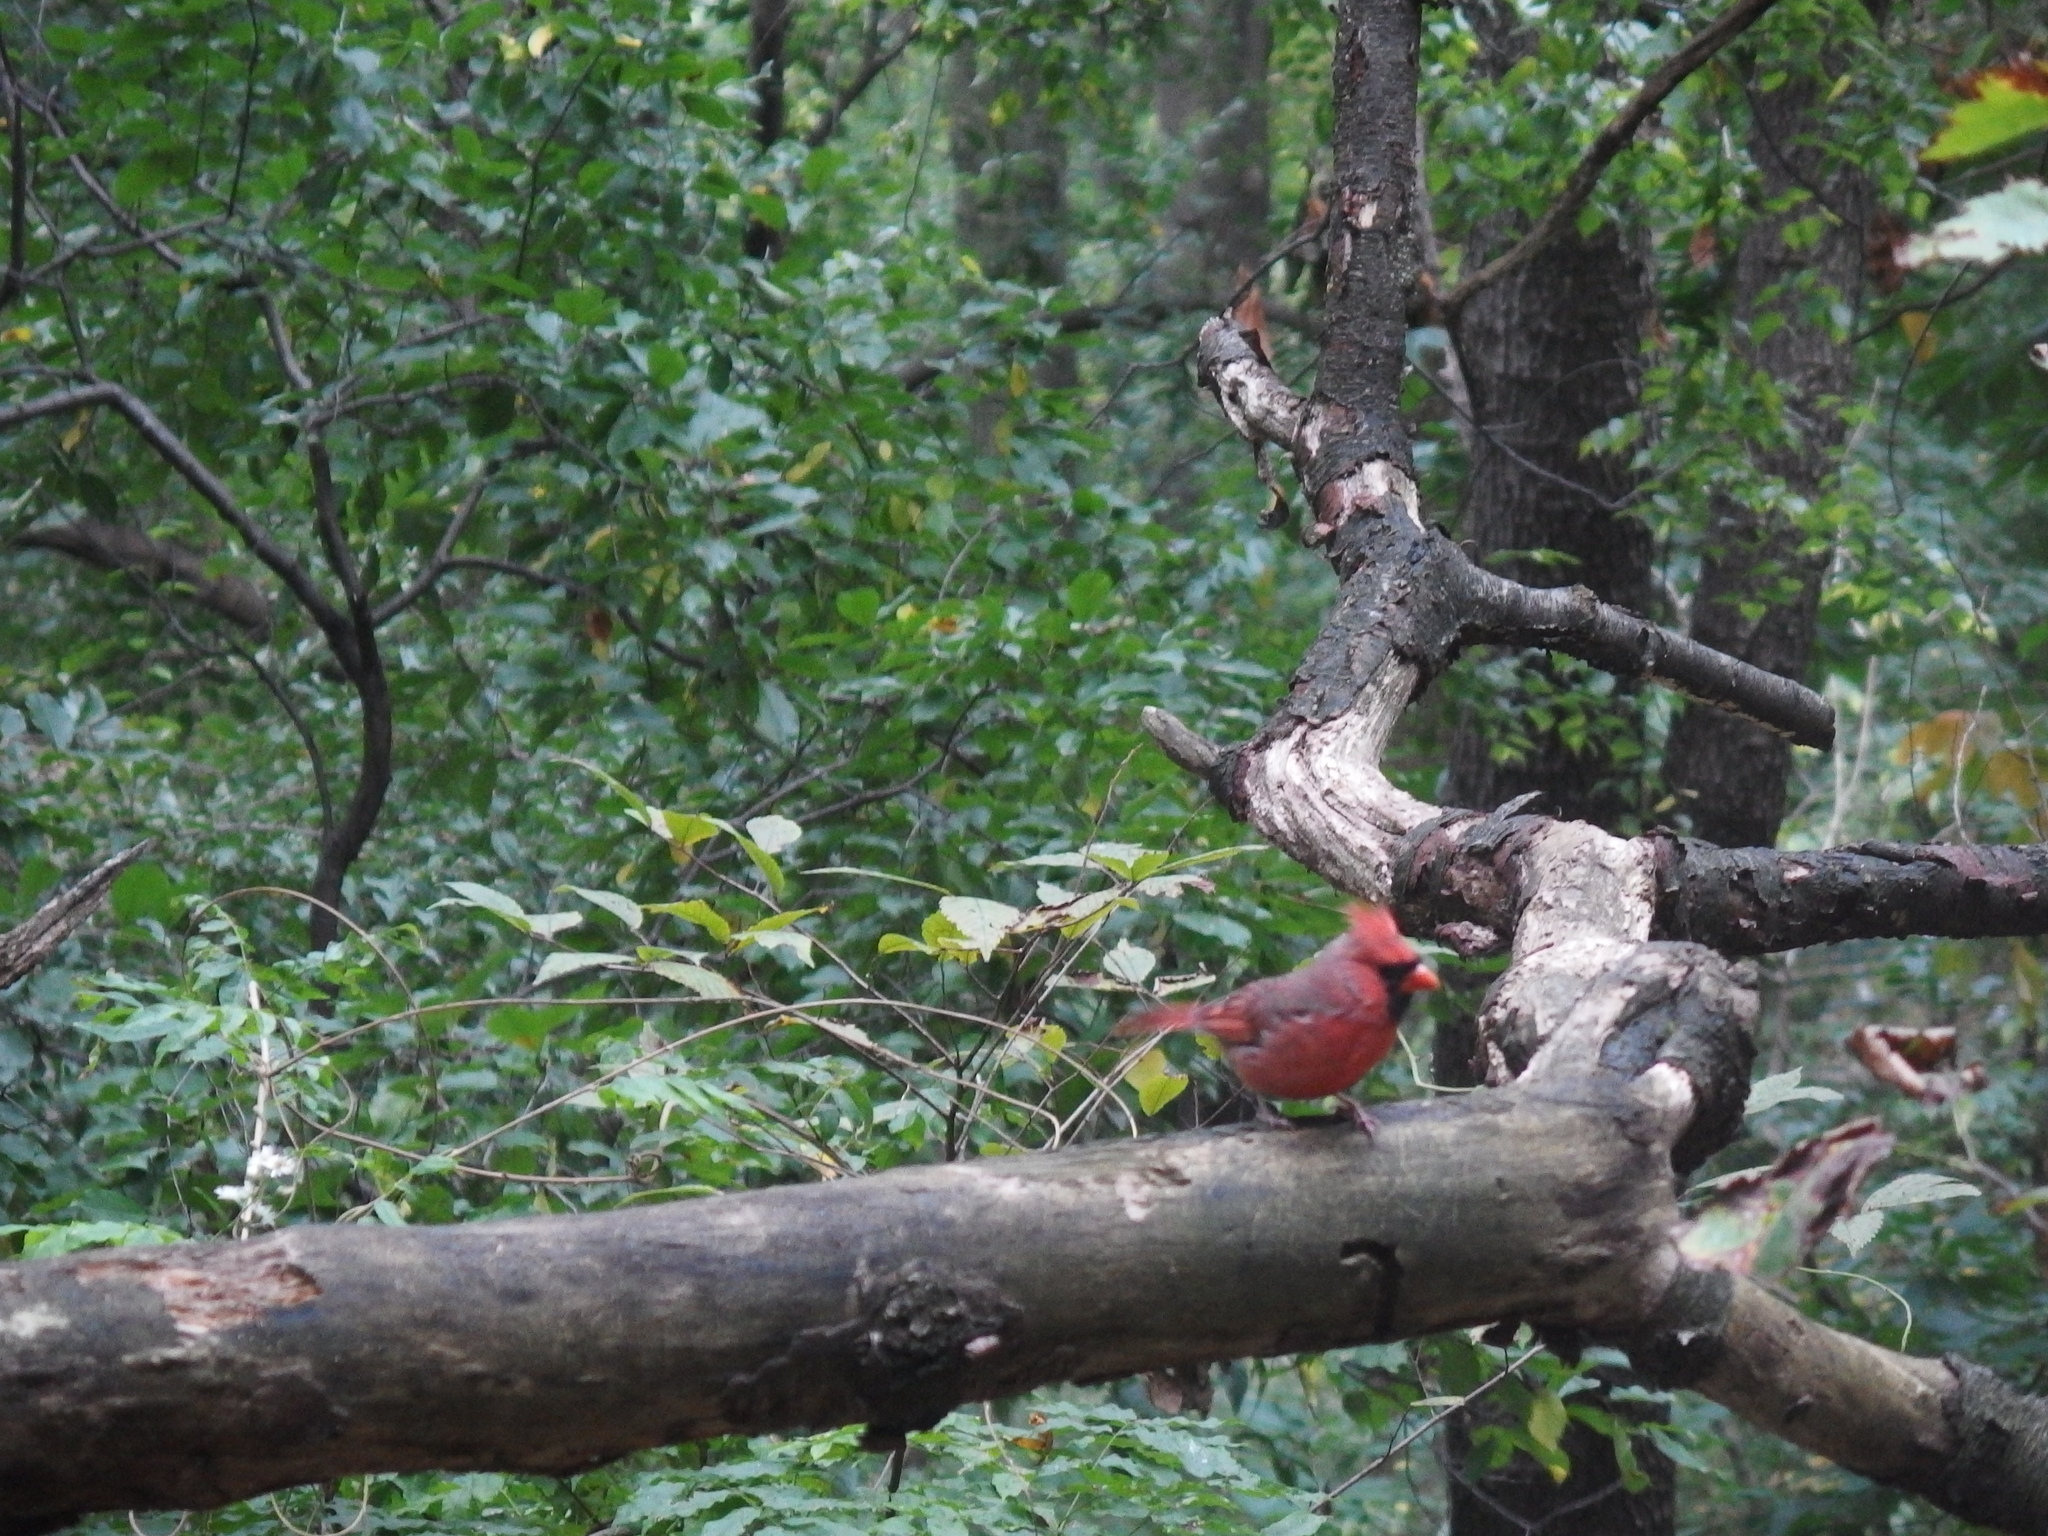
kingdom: Animalia
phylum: Chordata
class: Aves
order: Passeriformes
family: Cardinalidae
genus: Cardinalis
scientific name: Cardinalis cardinalis
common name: Northern cardinal
